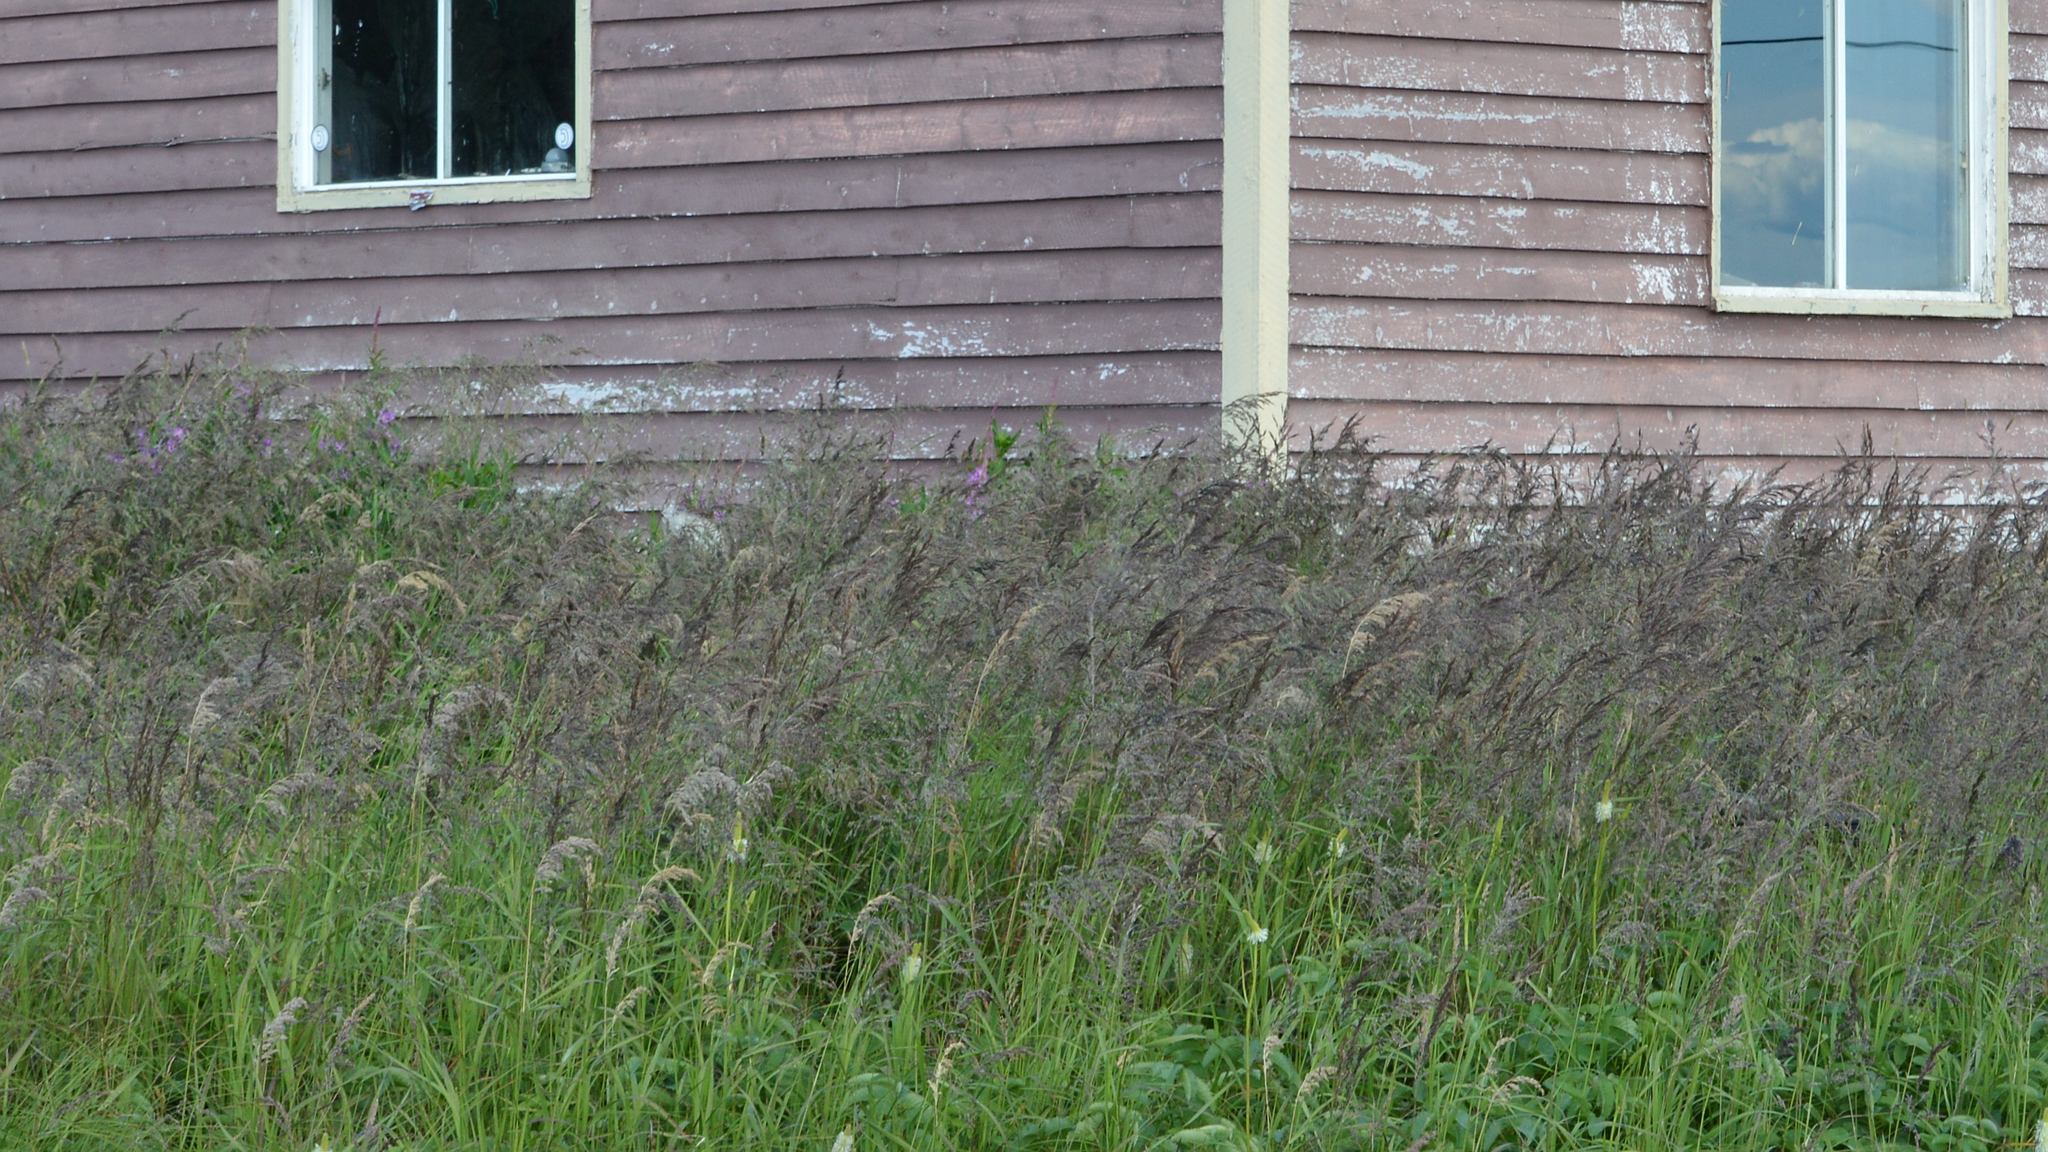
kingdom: Plantae
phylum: Tracheophyta
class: Liliopsida
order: Poales
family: Poaceae
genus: Calamagrostis
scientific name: Calamagrostis canadensis
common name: Canada bluejoint
